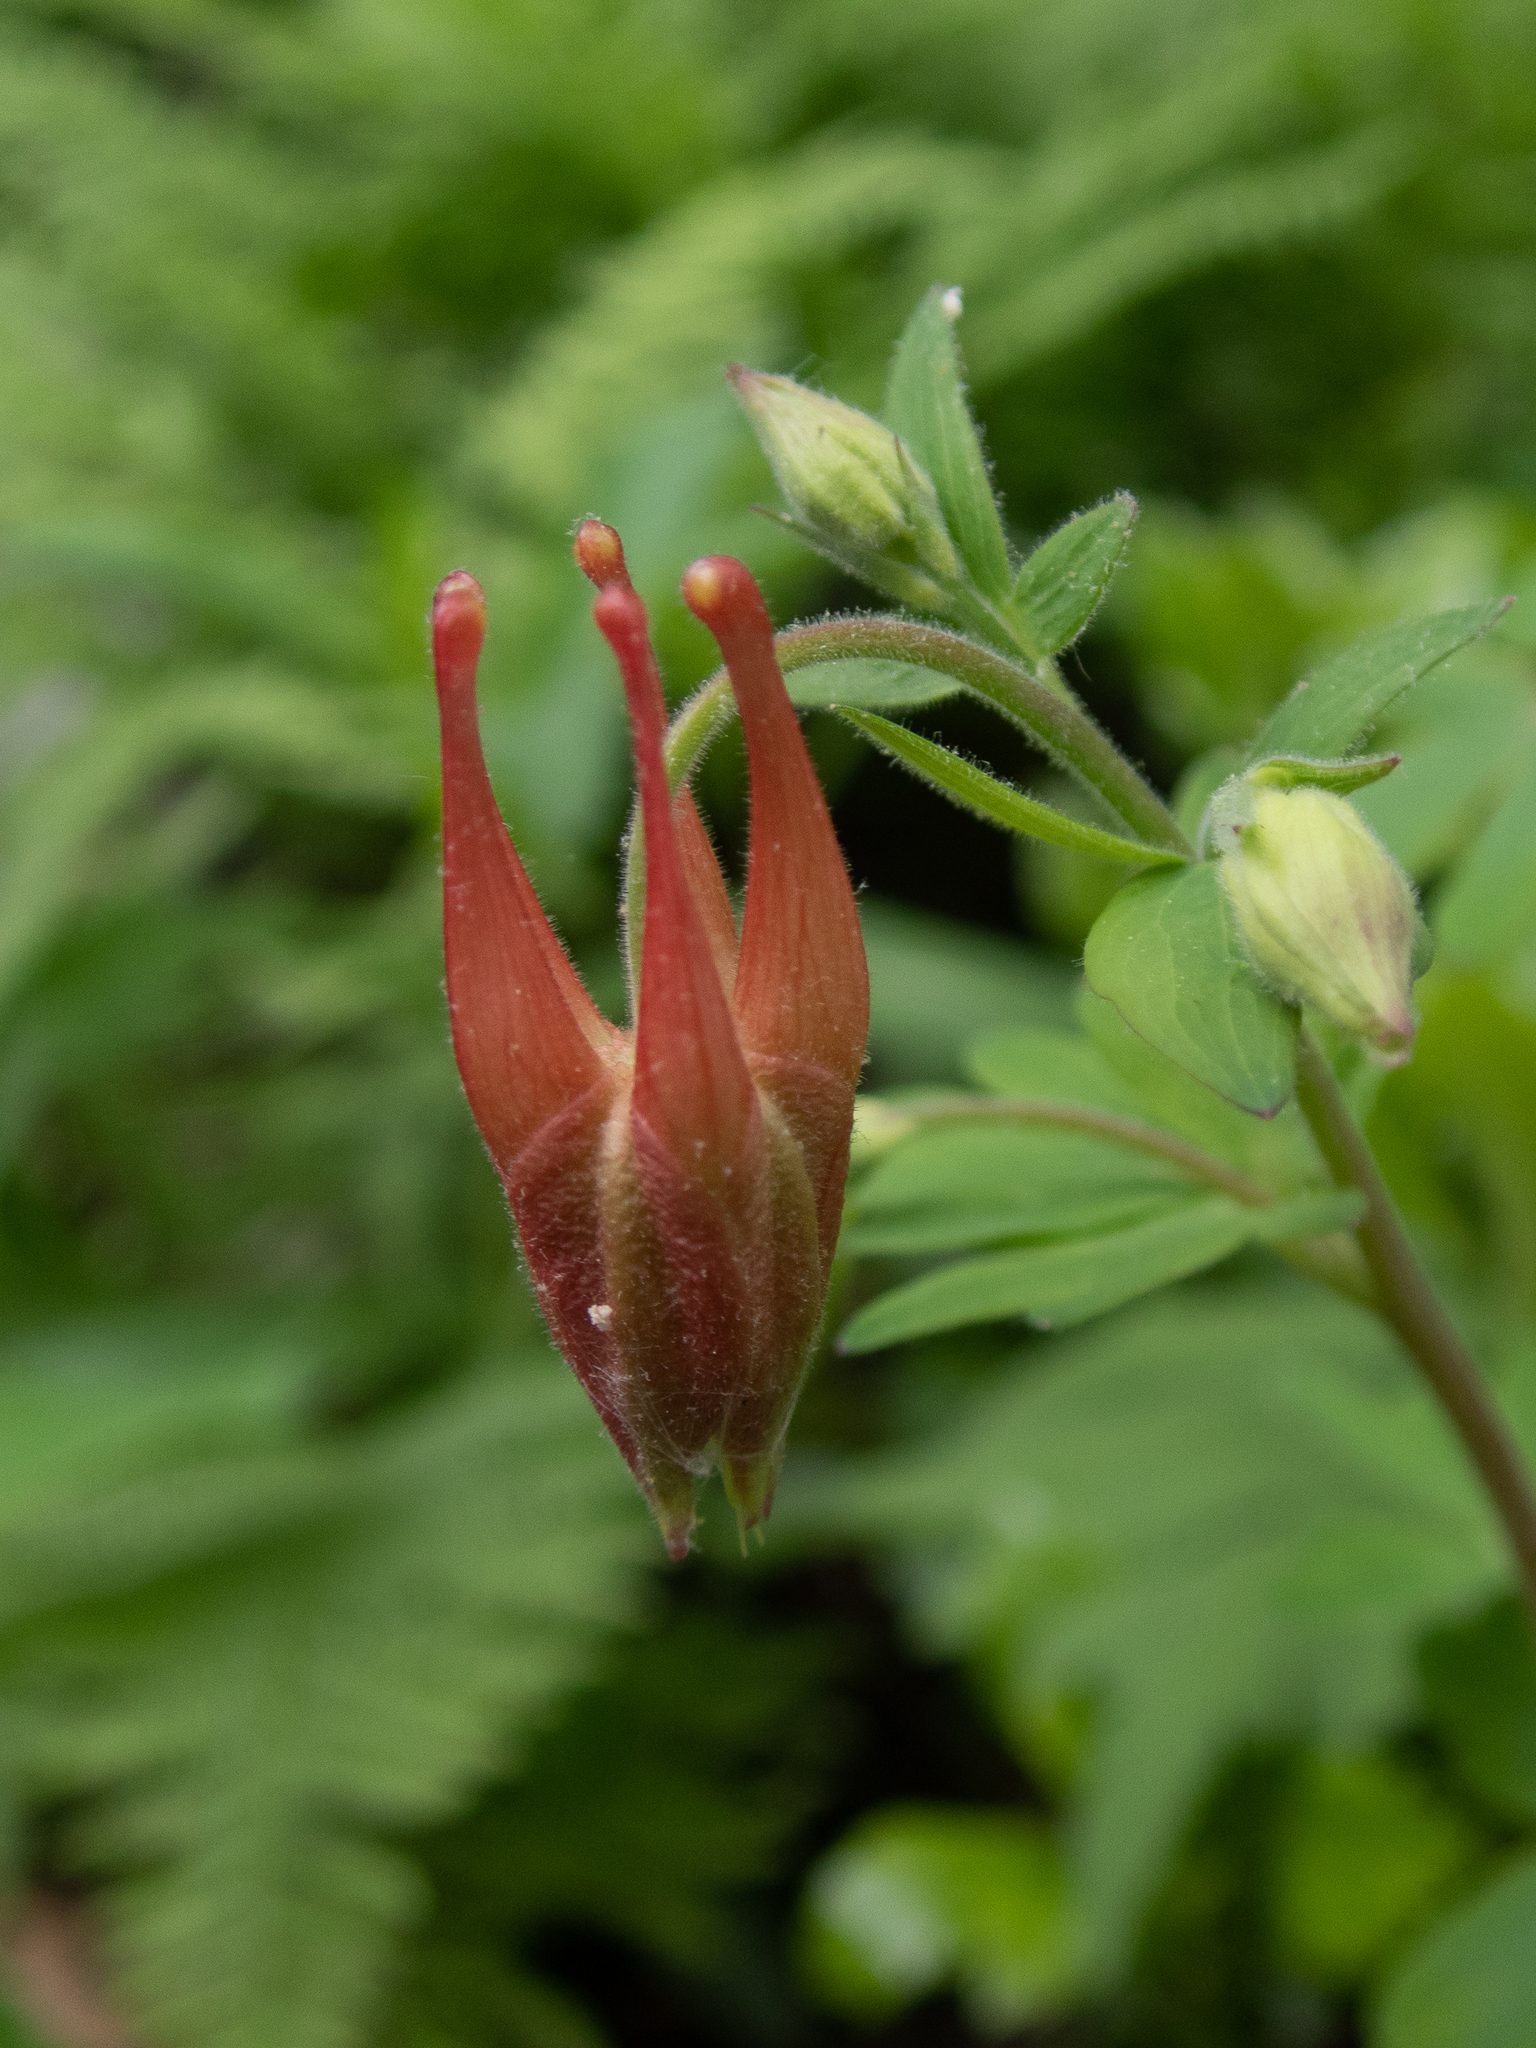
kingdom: Plantae
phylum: Tracheophyta
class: Magnoliopsida
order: Ranunculales
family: Ranunculaceae
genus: Aquilegia
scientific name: Aquilegia canadensis
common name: American columbine
